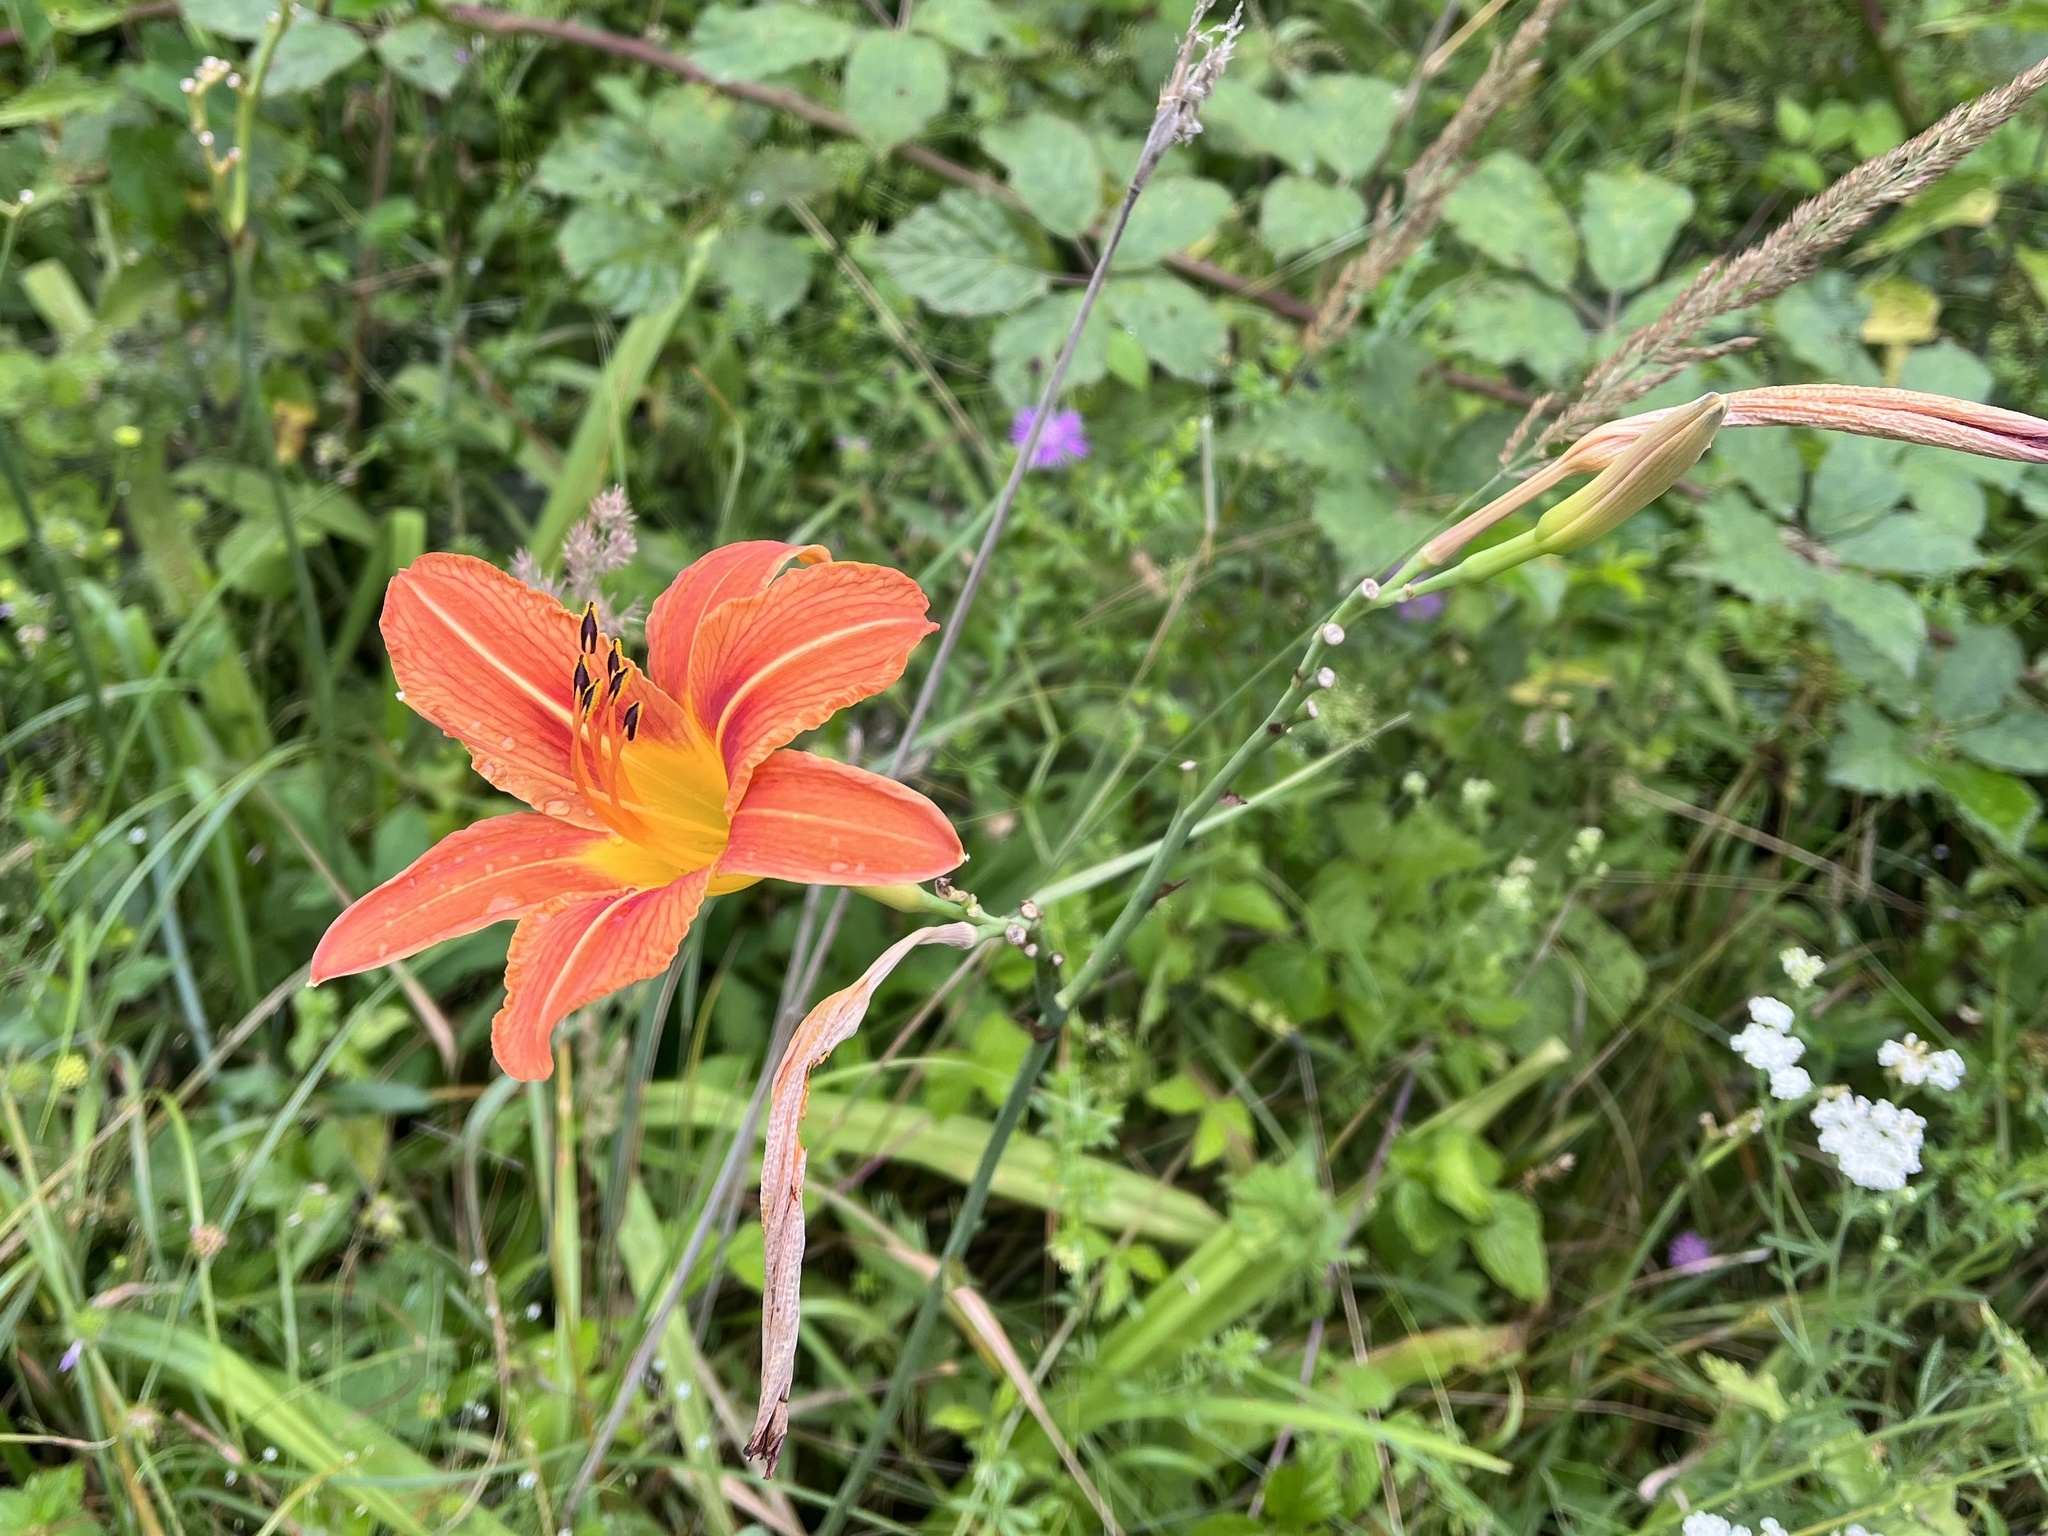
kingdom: Plantae
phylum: Tracheophyta
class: Liliopsida
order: Asparagales
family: Asphodelaceae
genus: Hemerocallis
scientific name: Hemerocallis fulva
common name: Orange day-lily
